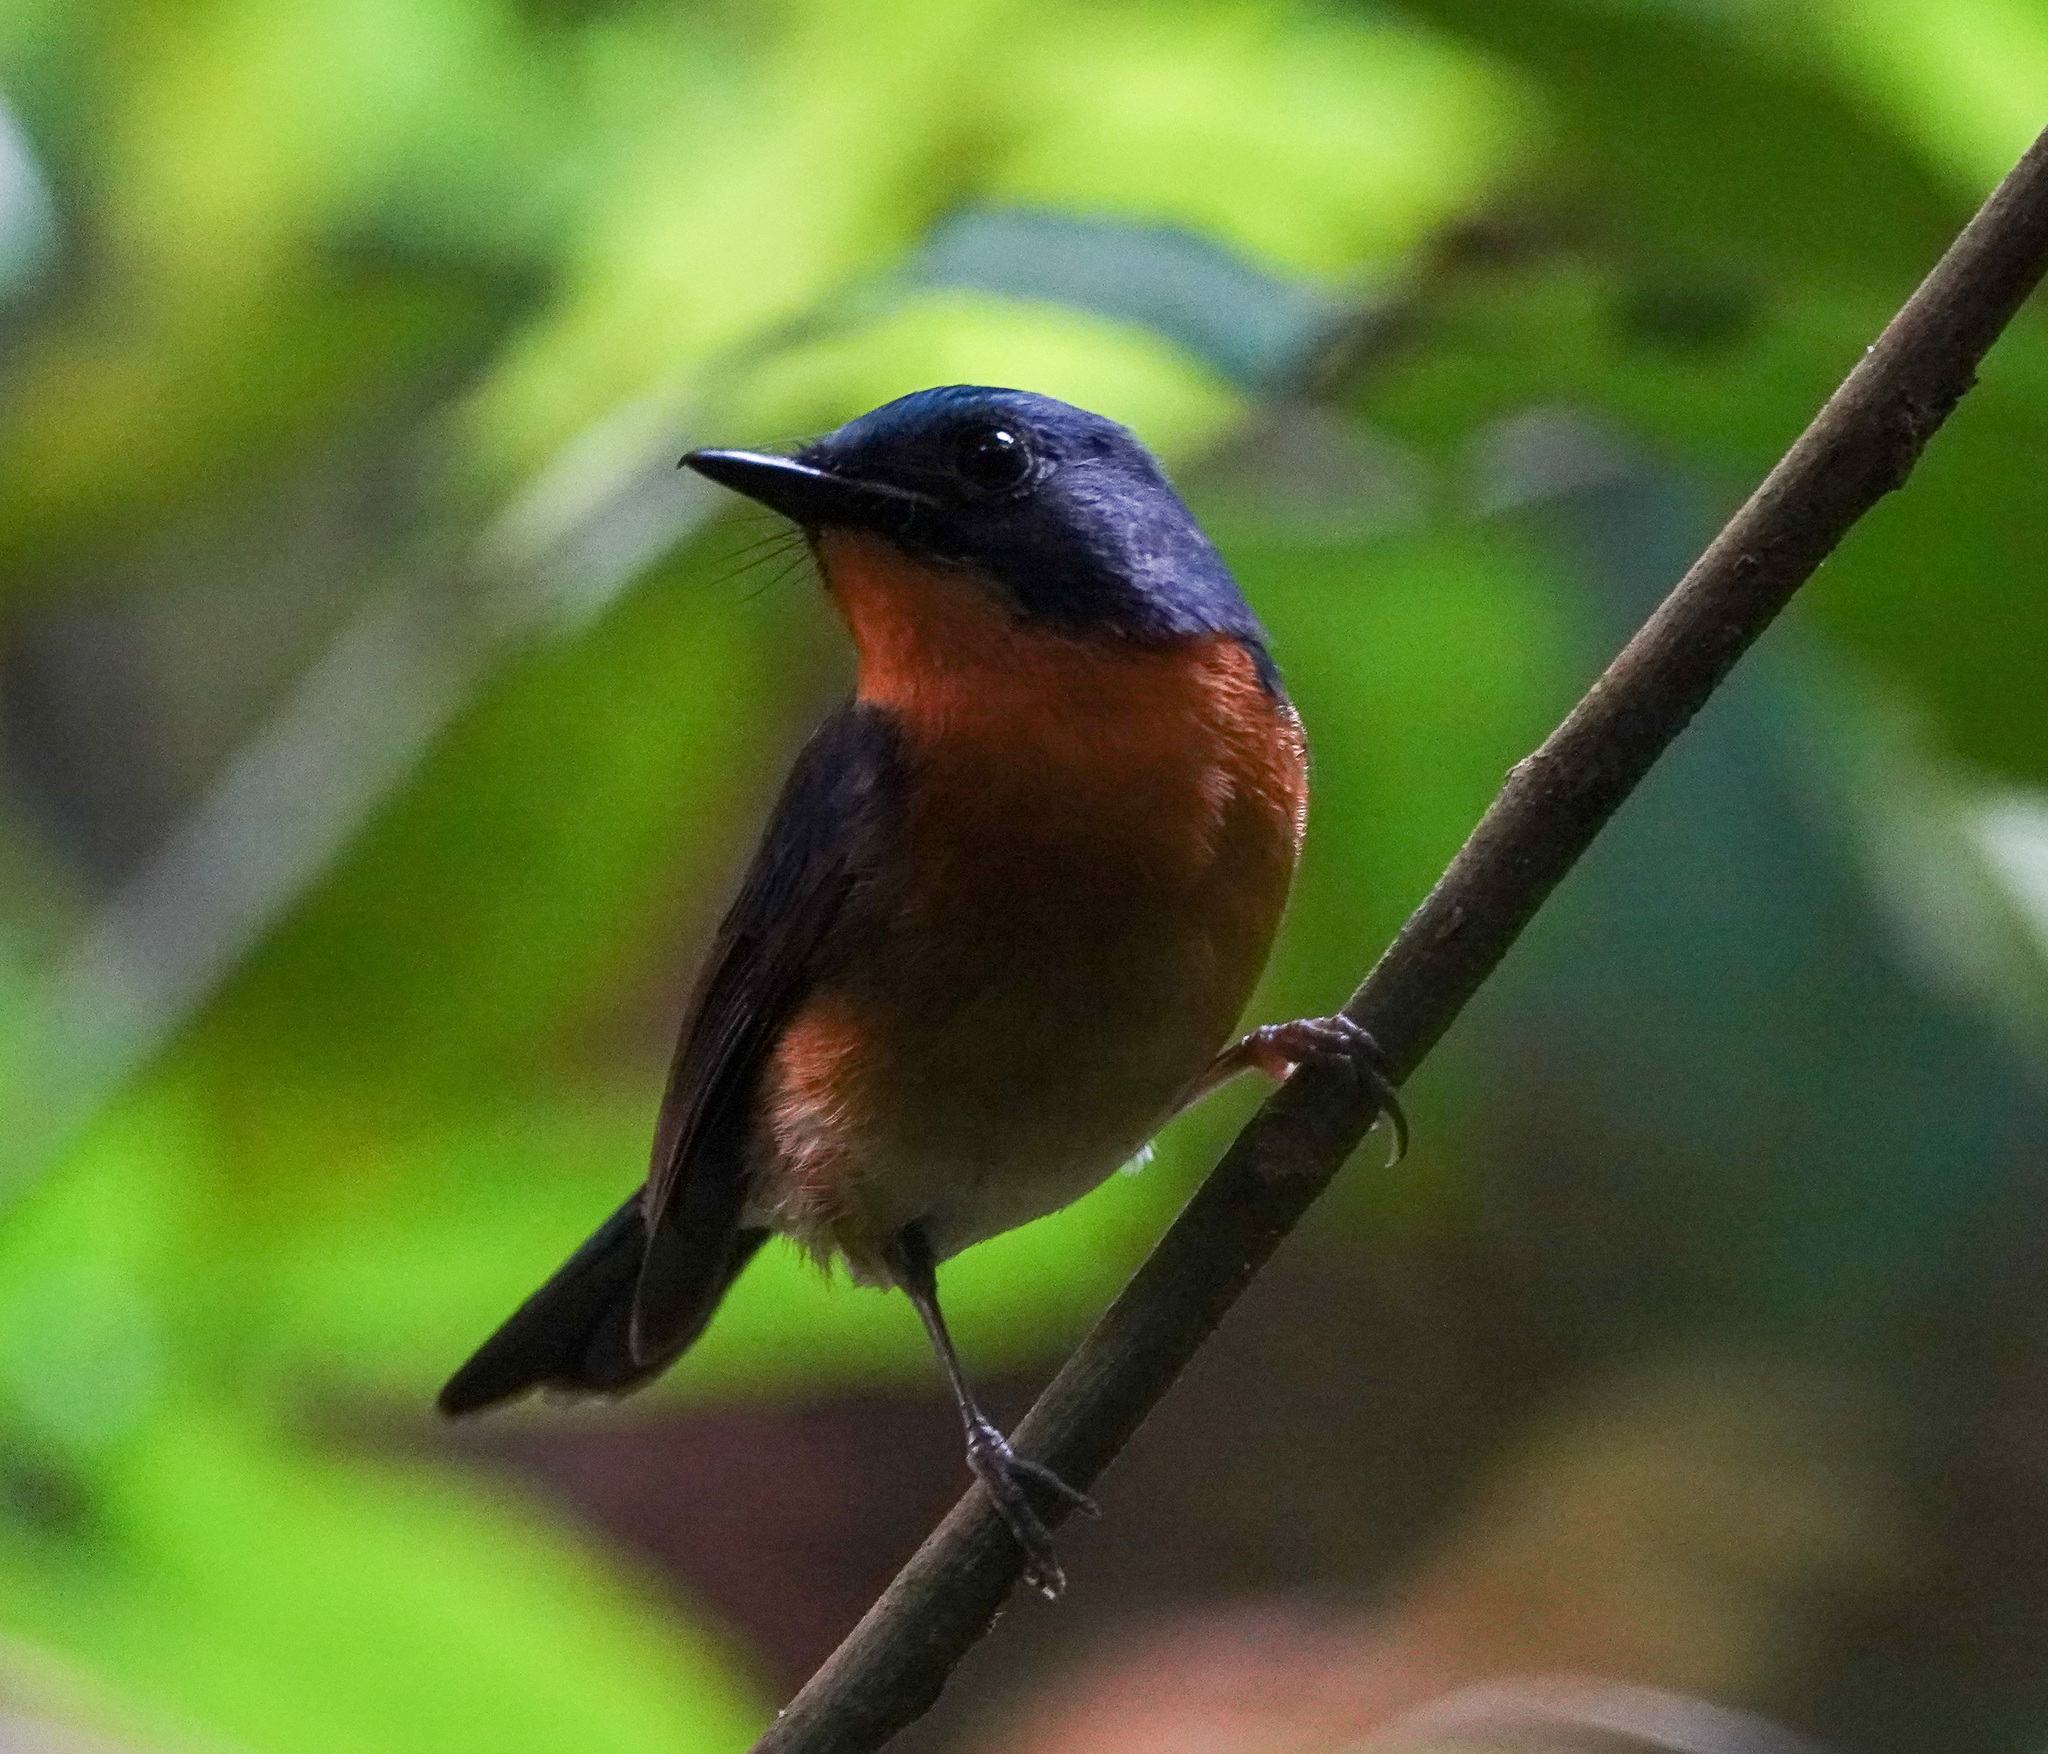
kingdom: Animalia
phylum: Chordata
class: Aves
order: Passeriformes
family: Muscicapidae
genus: Cyornis
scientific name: Cyornis whitei
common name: Hill blue flycatcher
